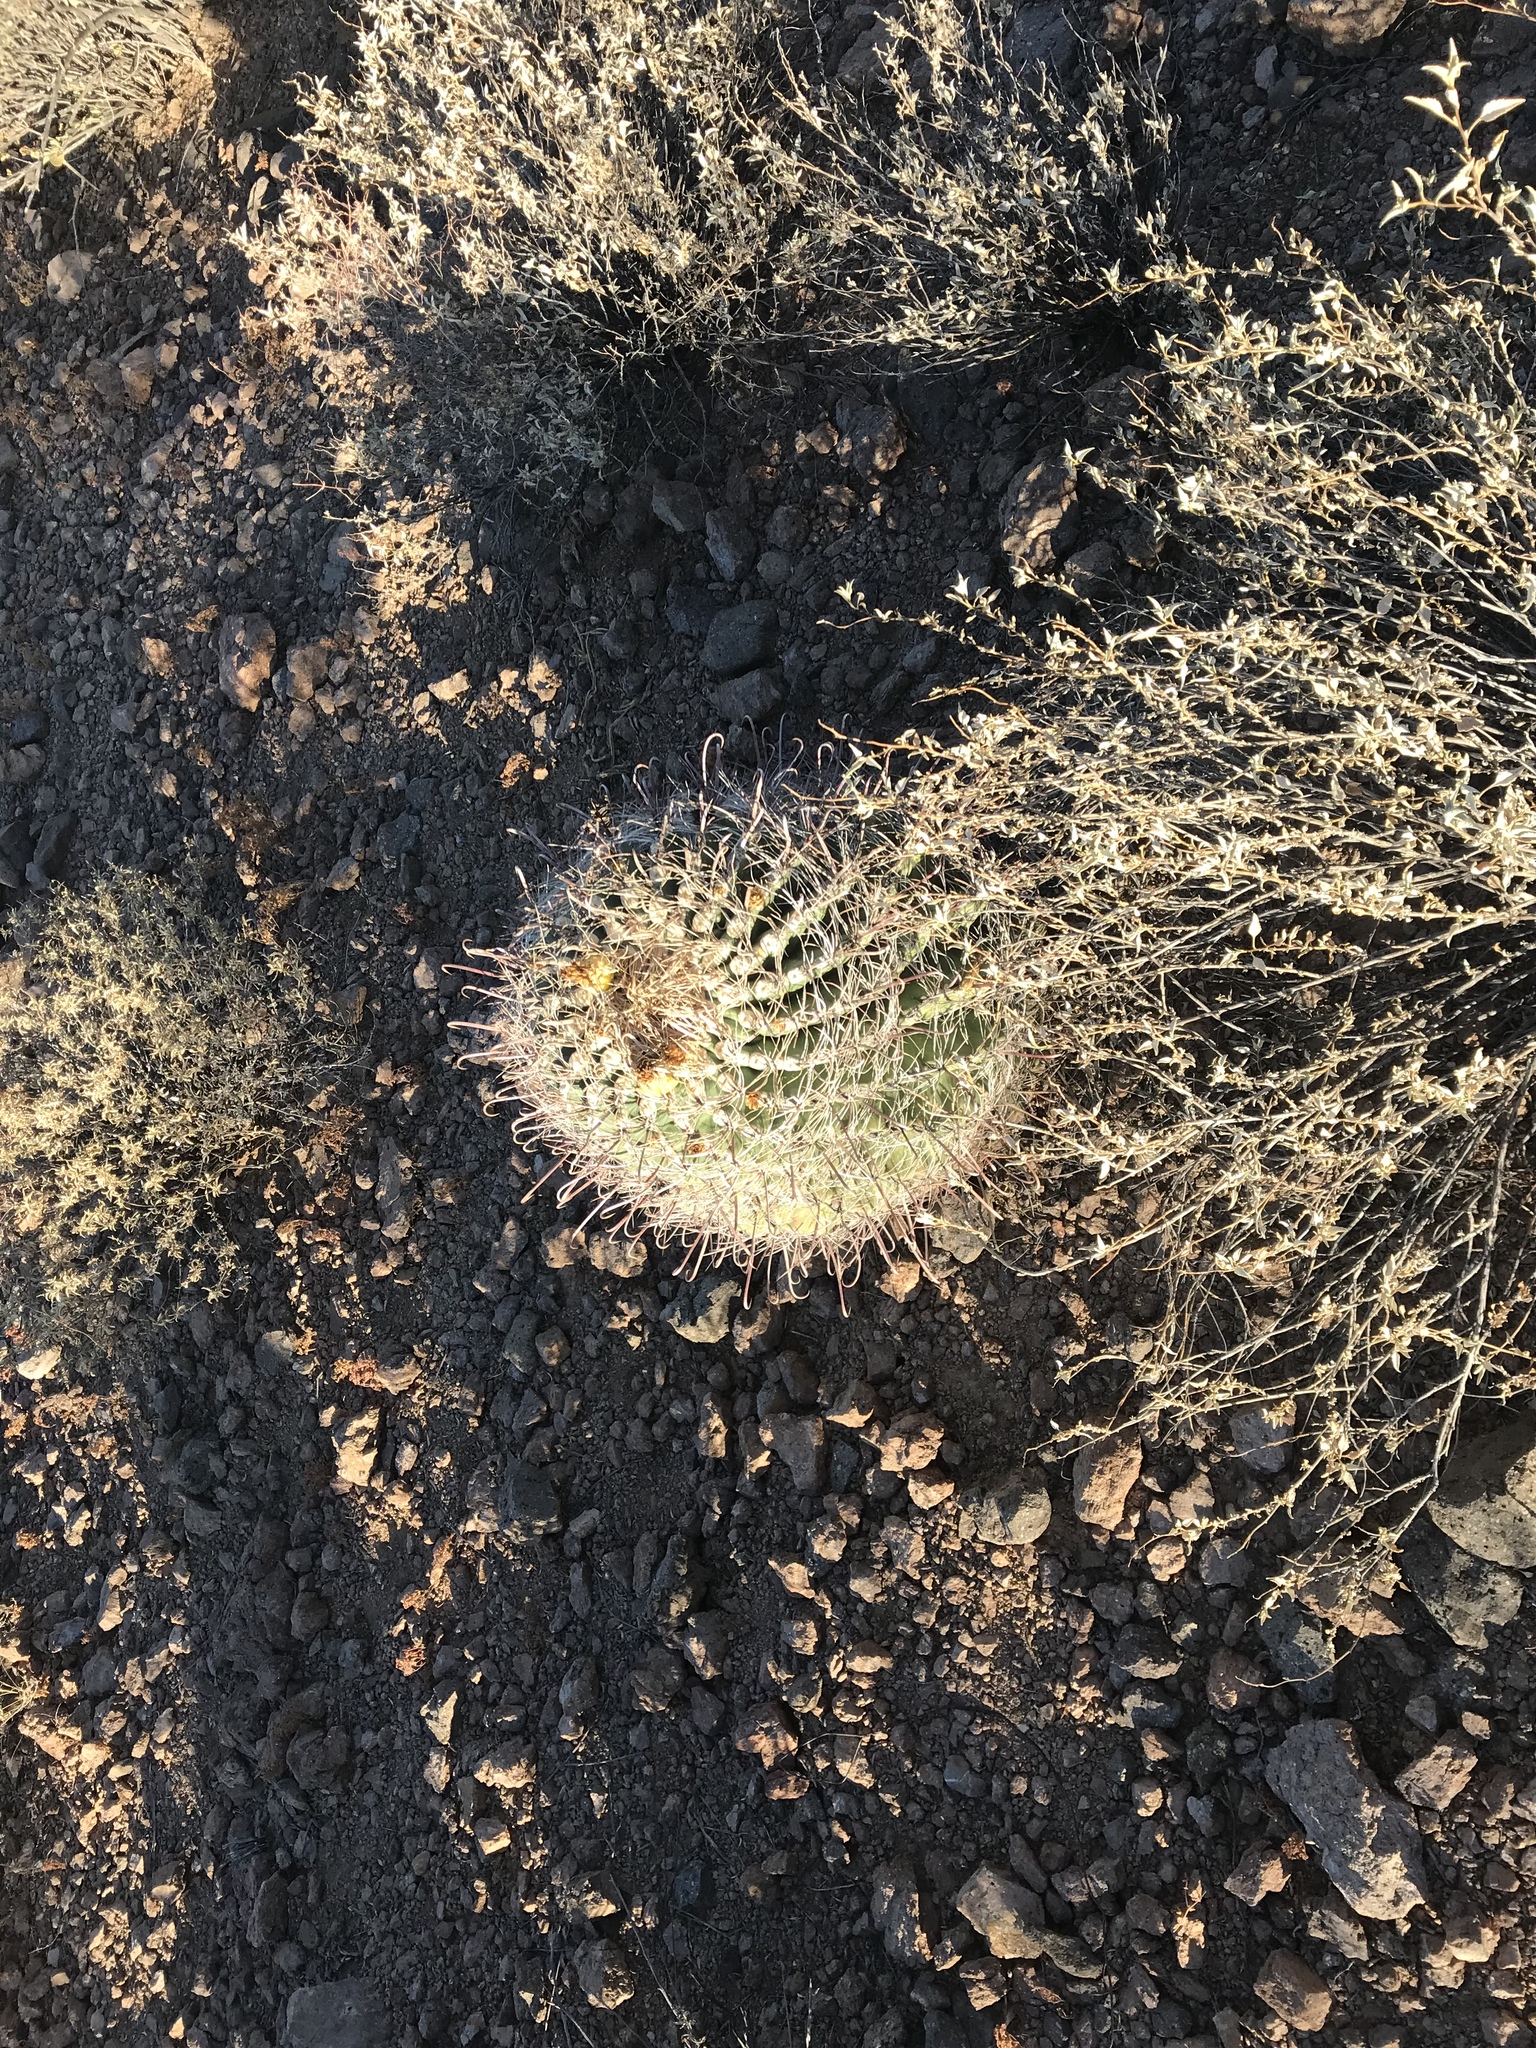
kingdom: Plantae
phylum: Tracheophyta
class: Magnoliopsida
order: Caryophyllales
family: Cactaceae
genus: Ferocactus
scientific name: Ferocactus wislizeni
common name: Candy barrel cactus
